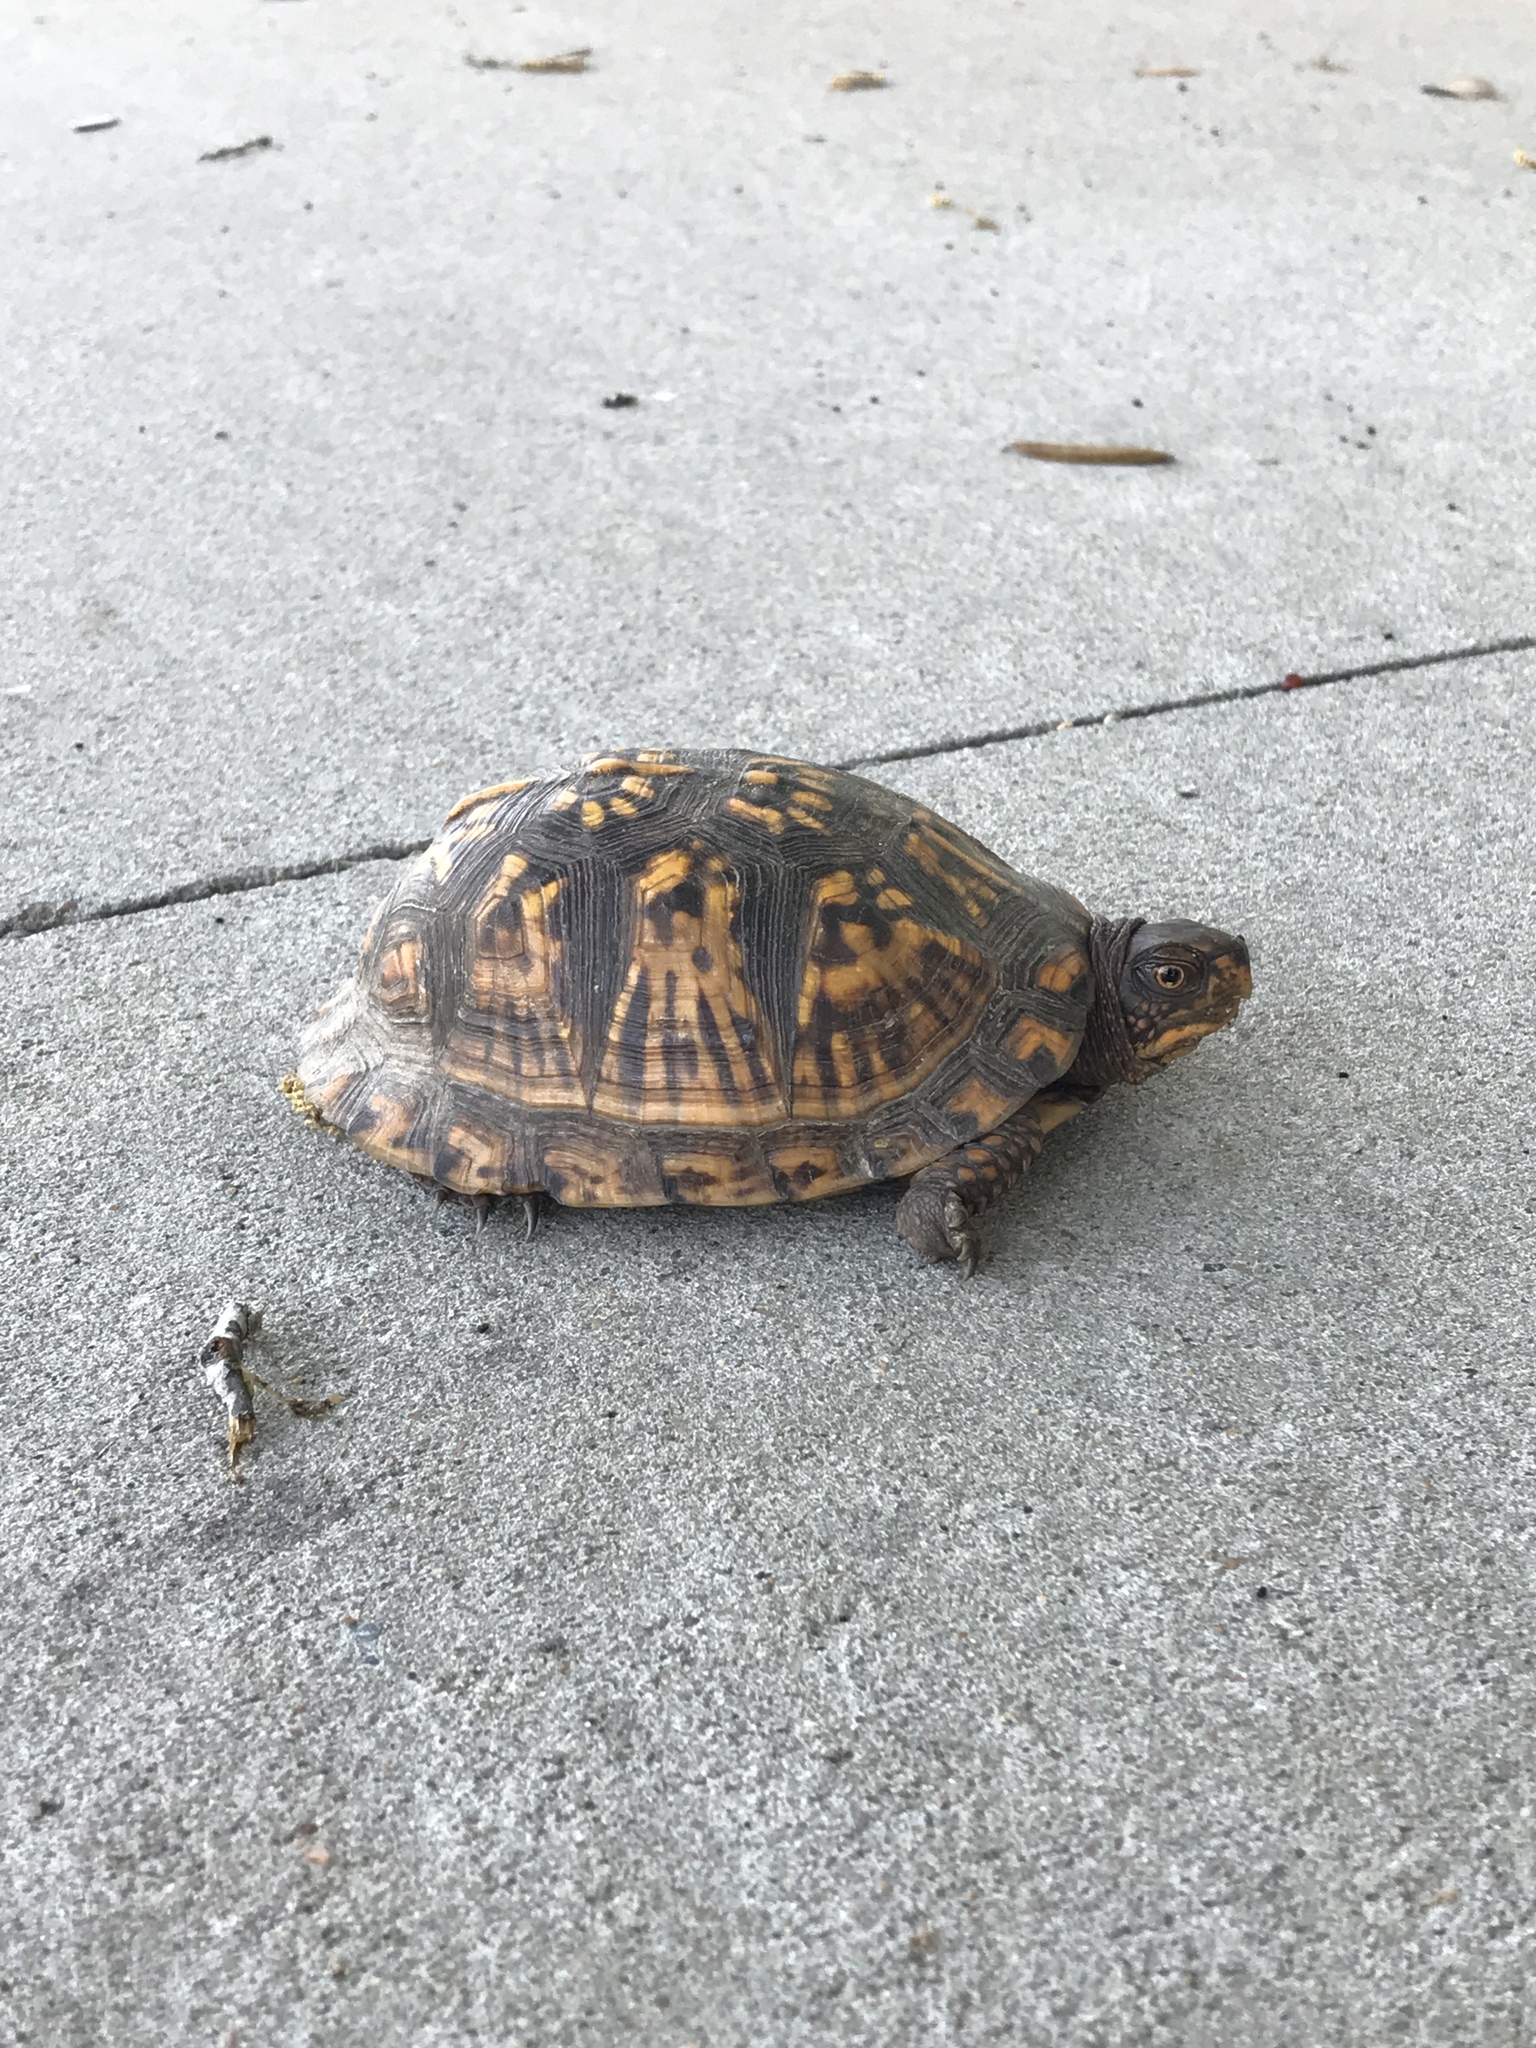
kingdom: Animalia
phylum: Chordata
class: Testudines
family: Emydidae
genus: Terrapene
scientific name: Terrapene carolina
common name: Common box turtle
